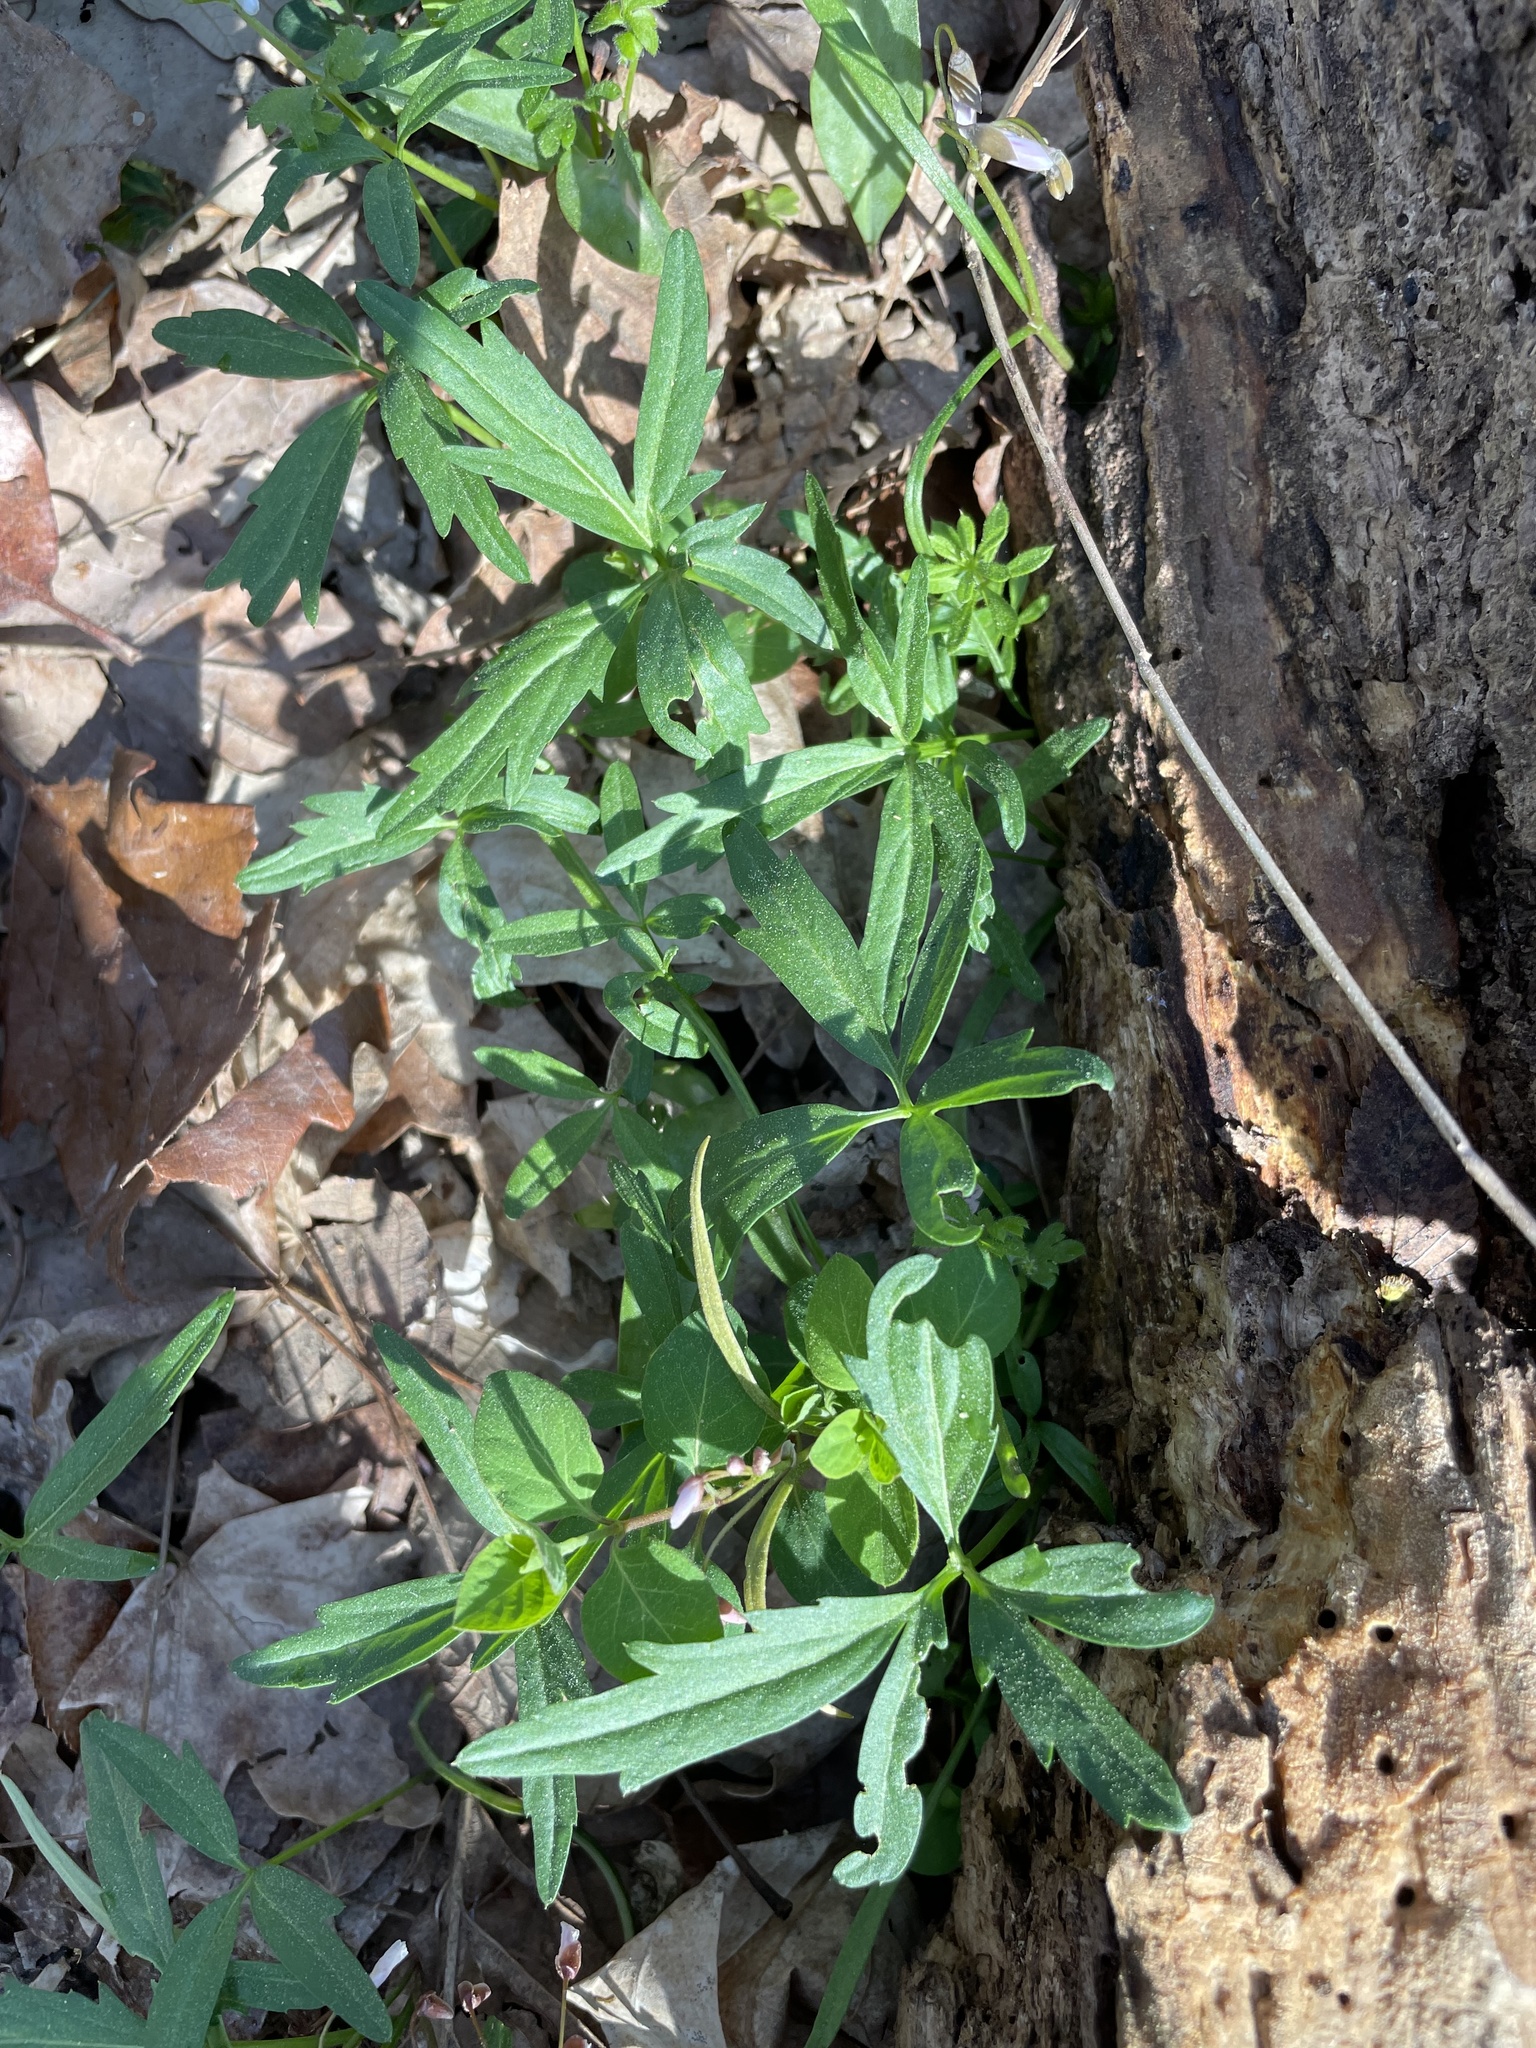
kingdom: Plantae
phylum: Tracheophyta
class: Magnoliopsida
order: Brassicales
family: Brassicaceae
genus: Cardamine
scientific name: Cardamine concatenata
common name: Cut-leaf toothcup
